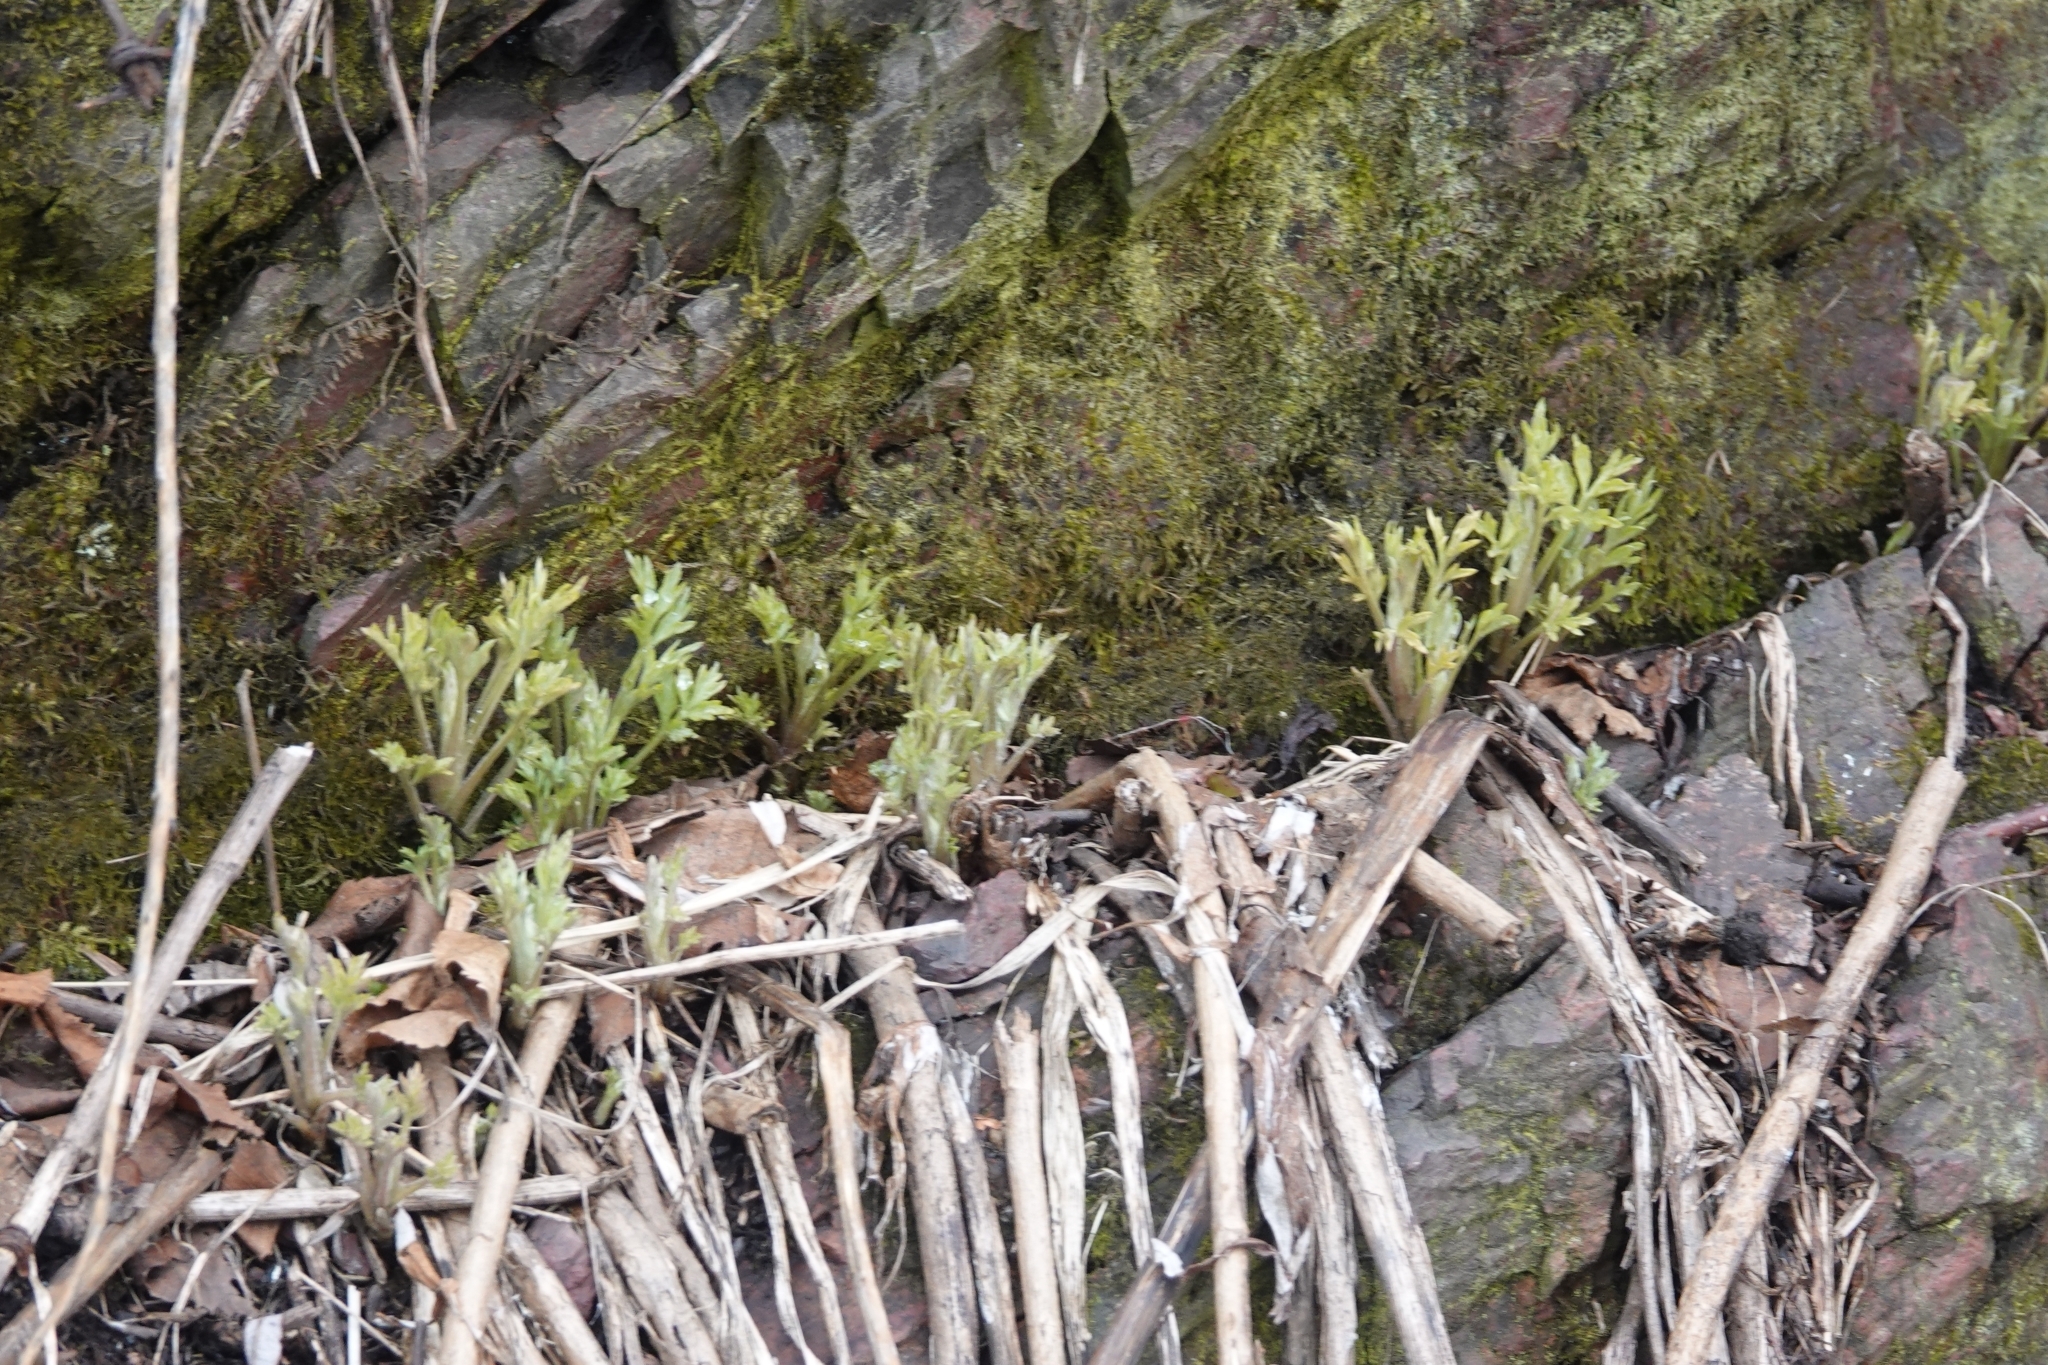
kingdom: Plantae
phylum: Tracheophyta
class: Magnoliopsida
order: Asterales
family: Asteraceae
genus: Artemisia
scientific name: Artemisia vulgaris
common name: Mugwort
